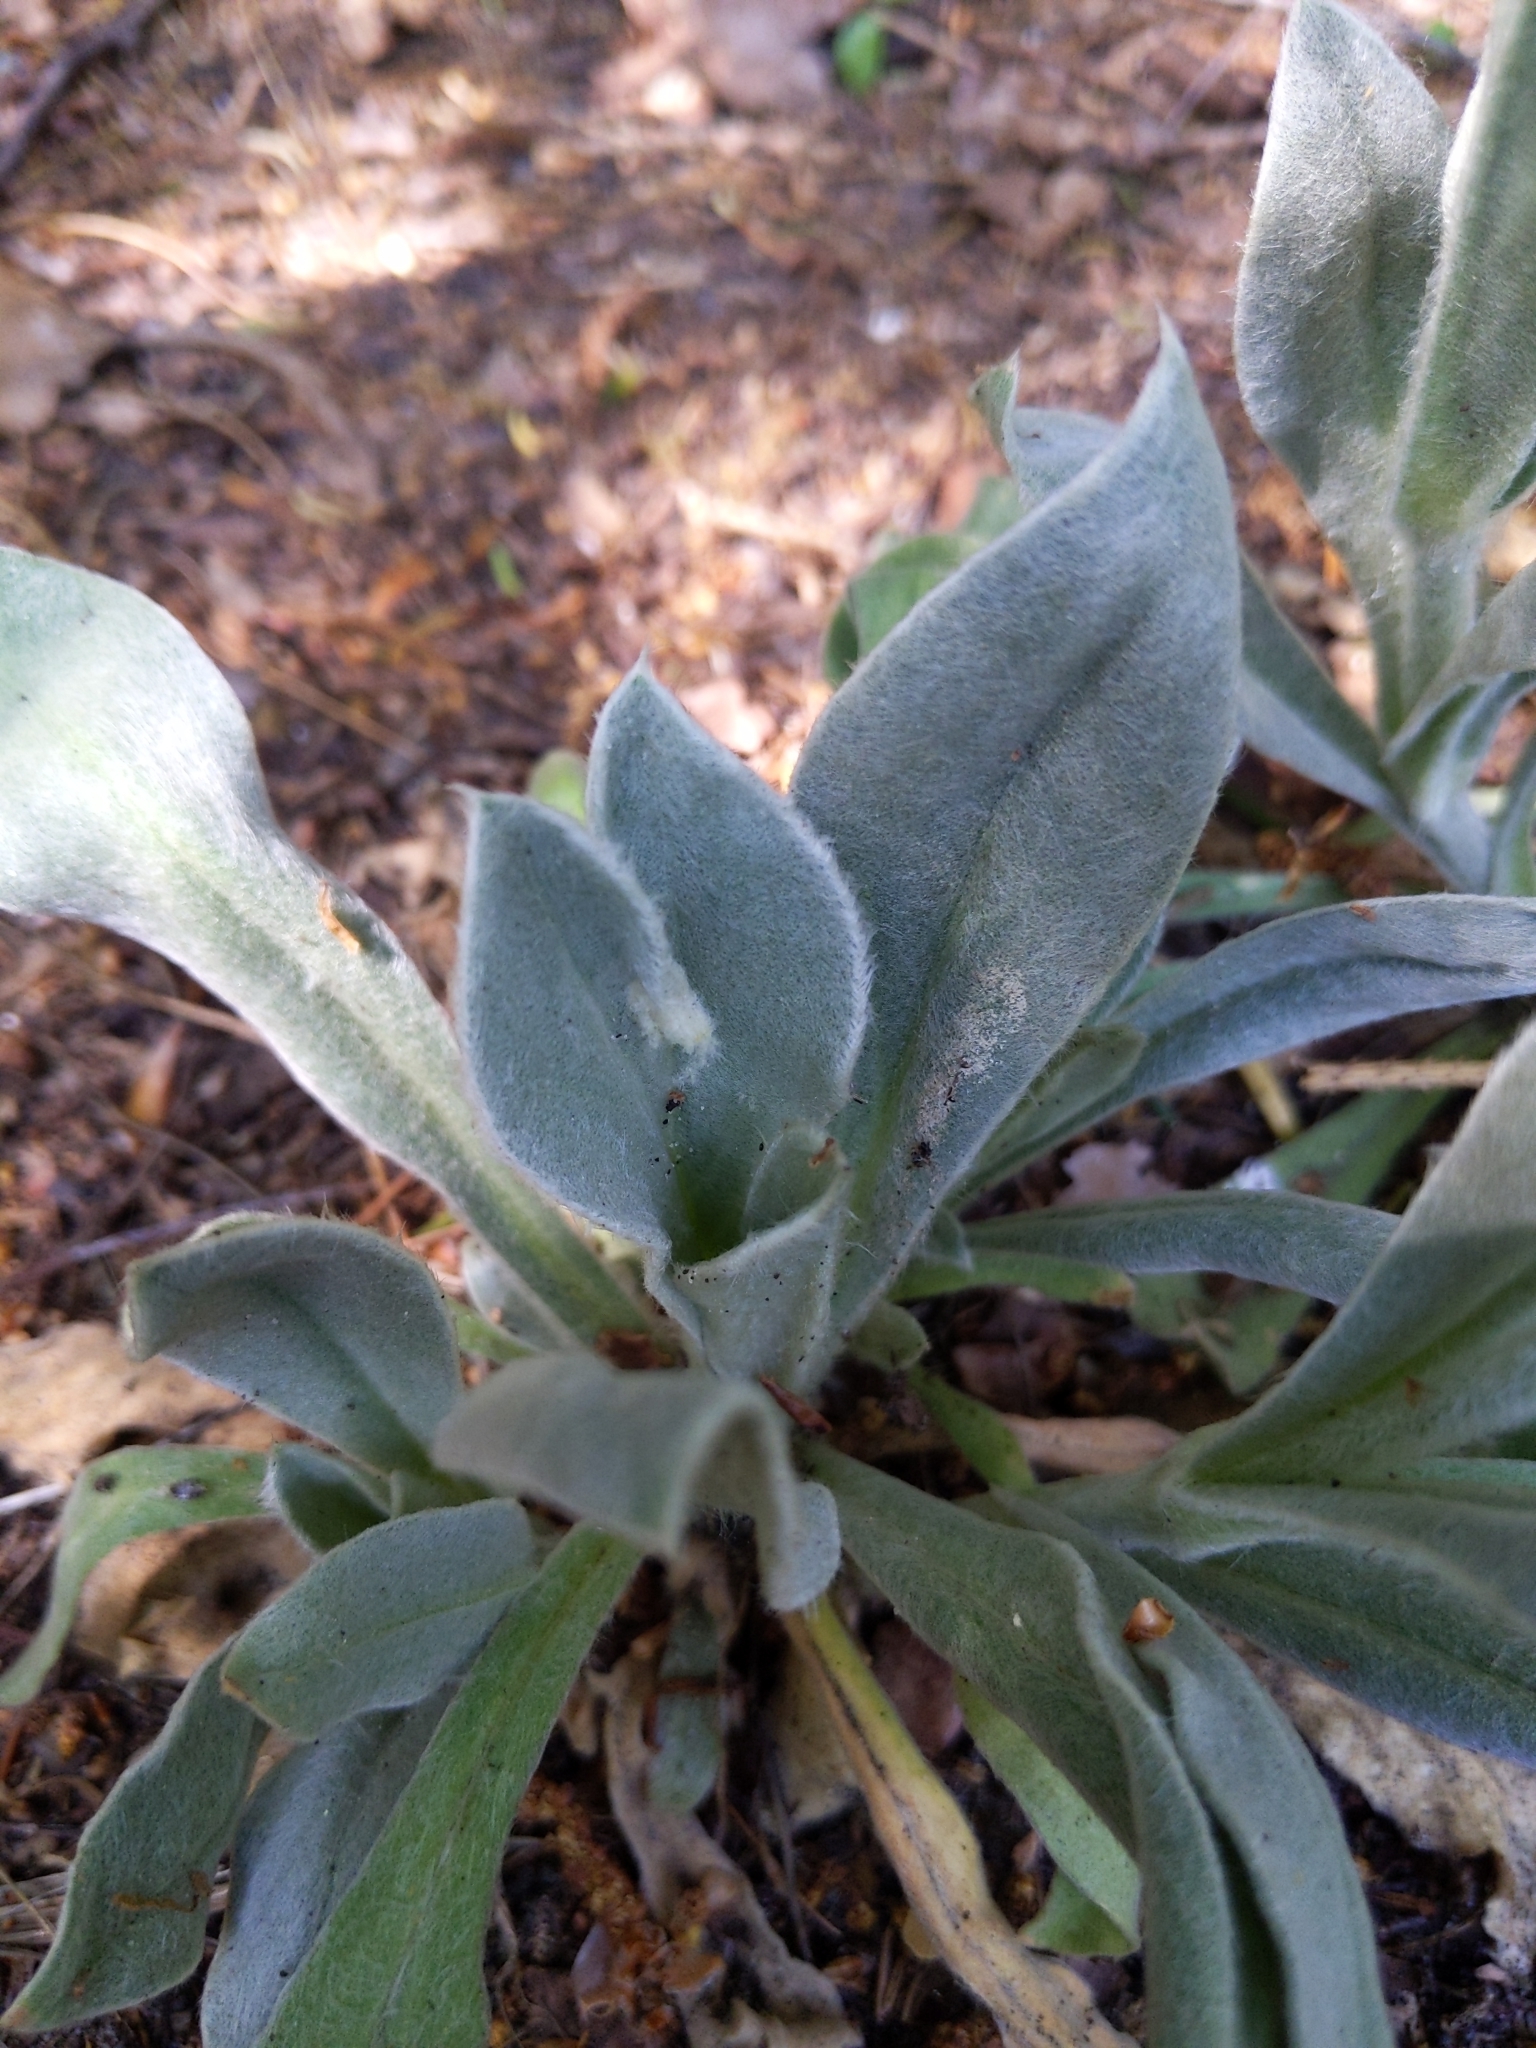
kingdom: Plantae
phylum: Tracheophyta
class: Magnoliopsida
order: Caryophyllales
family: Caryophyllaceae
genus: Silene
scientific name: Silene coronaria
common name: Rose campion
